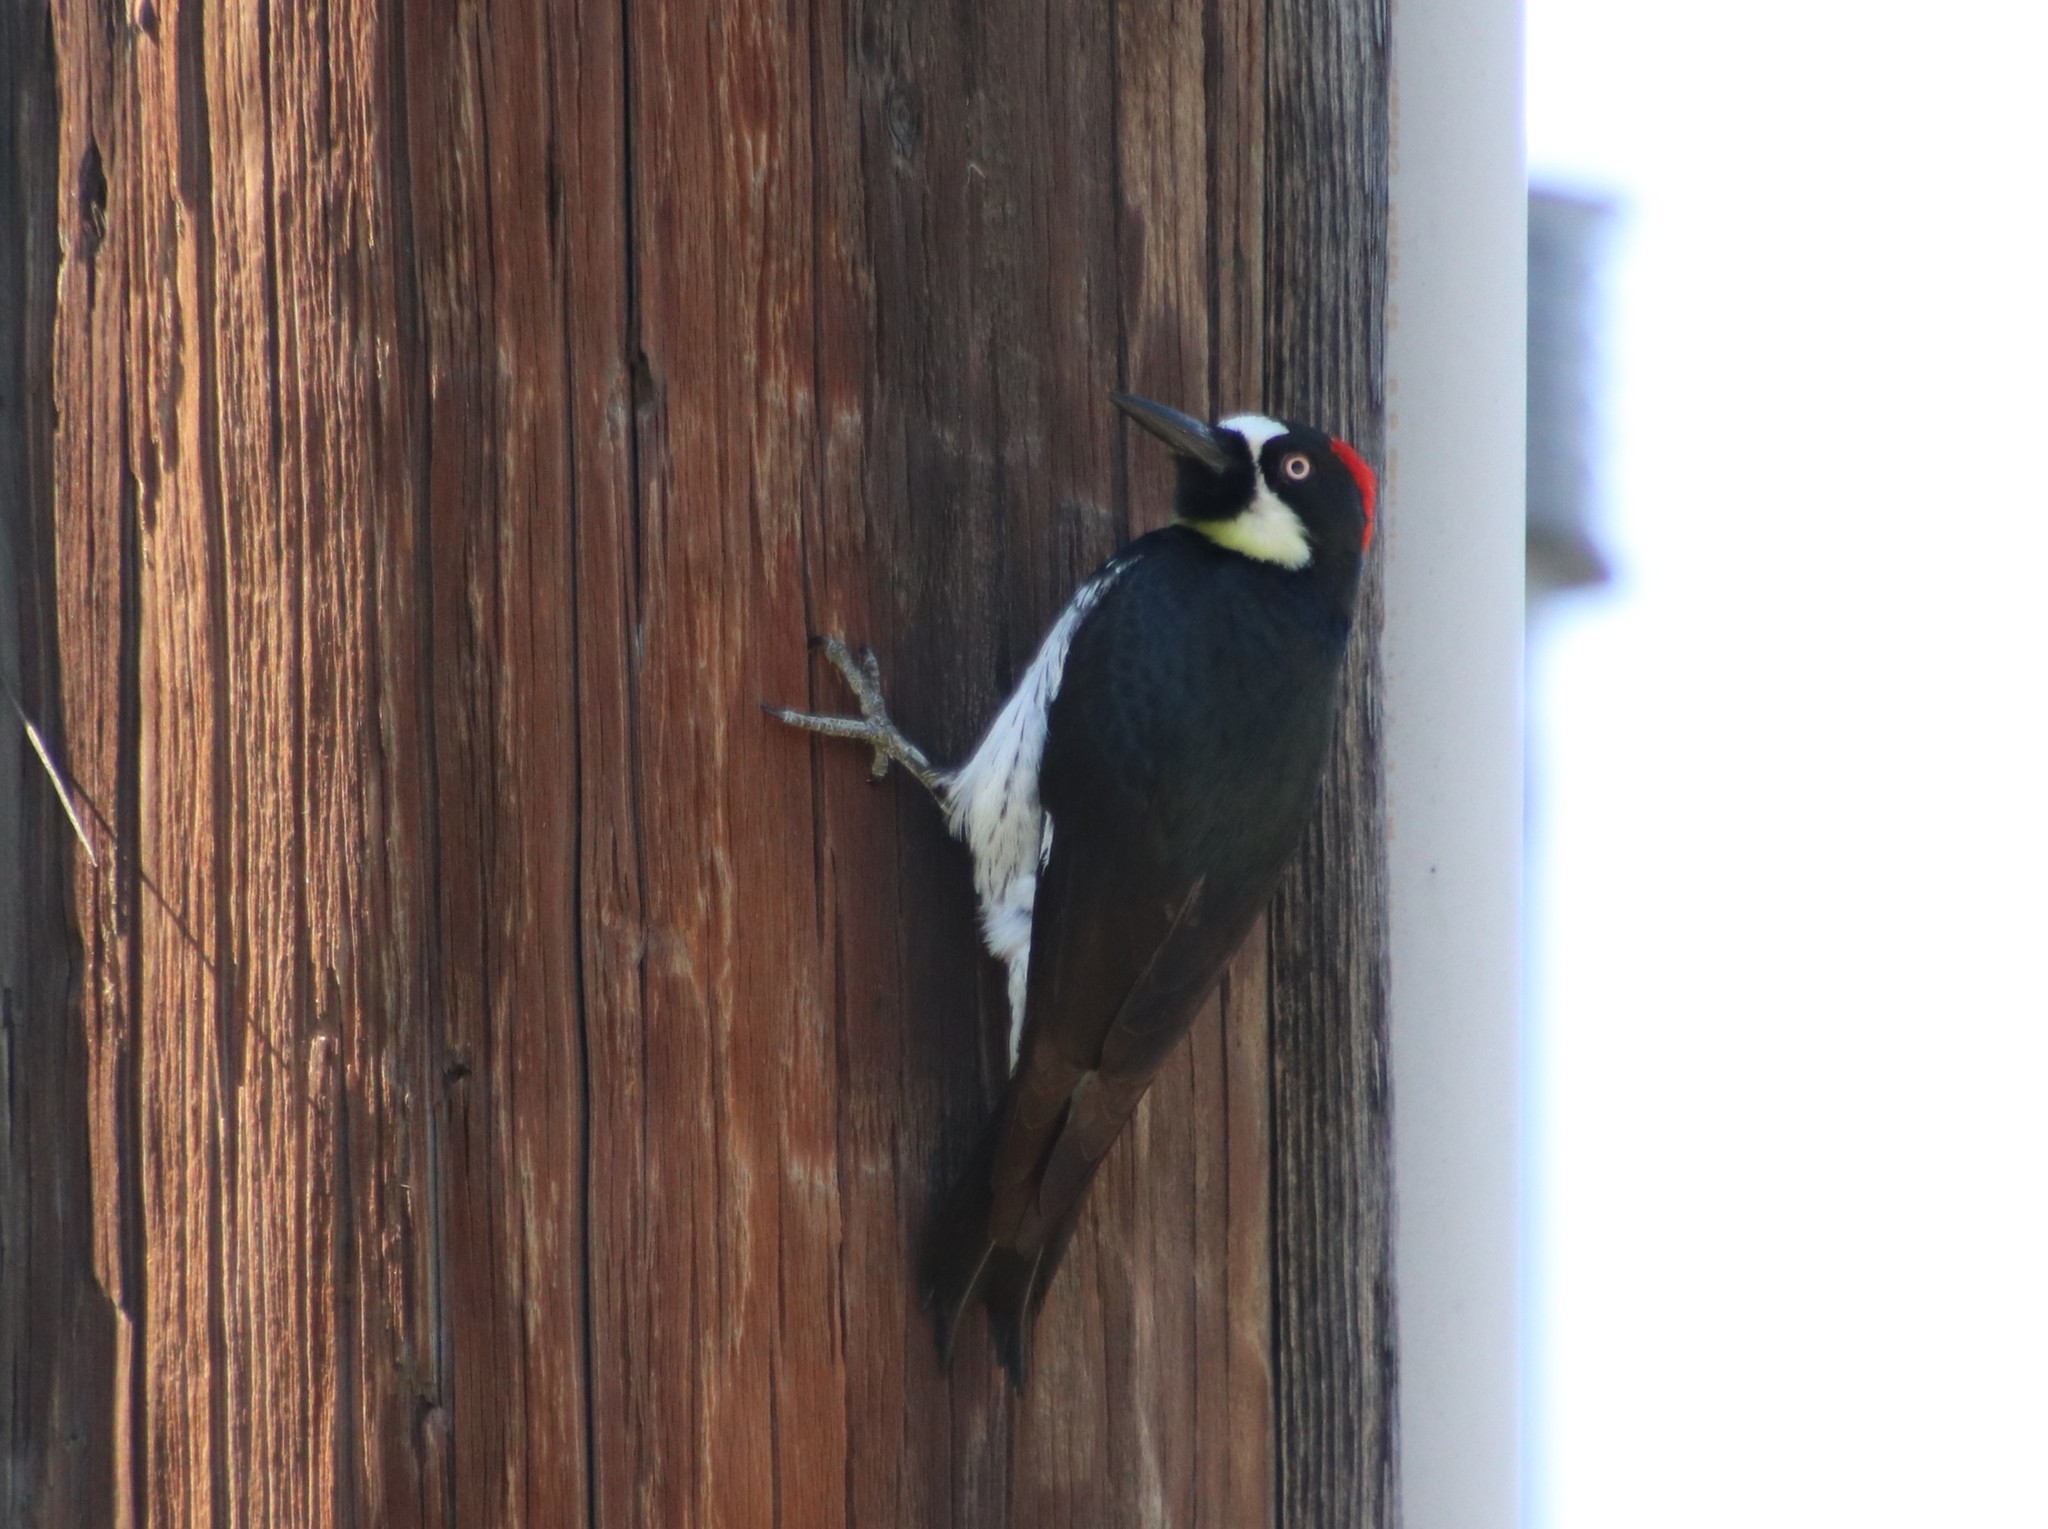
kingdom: Animalia
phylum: Chordata
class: Aves
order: Piciformes
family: Picidae
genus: Melanerpes
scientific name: Melanerpes formicivorus
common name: Acorn woodpecker
